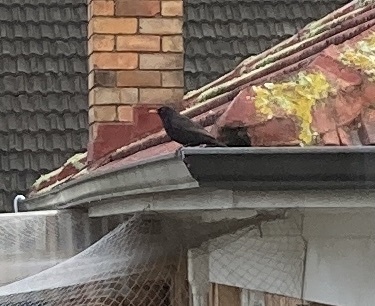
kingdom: Animalia
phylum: Chordata
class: Aves
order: Passeriformes
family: Turdidae
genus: Turdus
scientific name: Turdus merula
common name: Common blackbird
